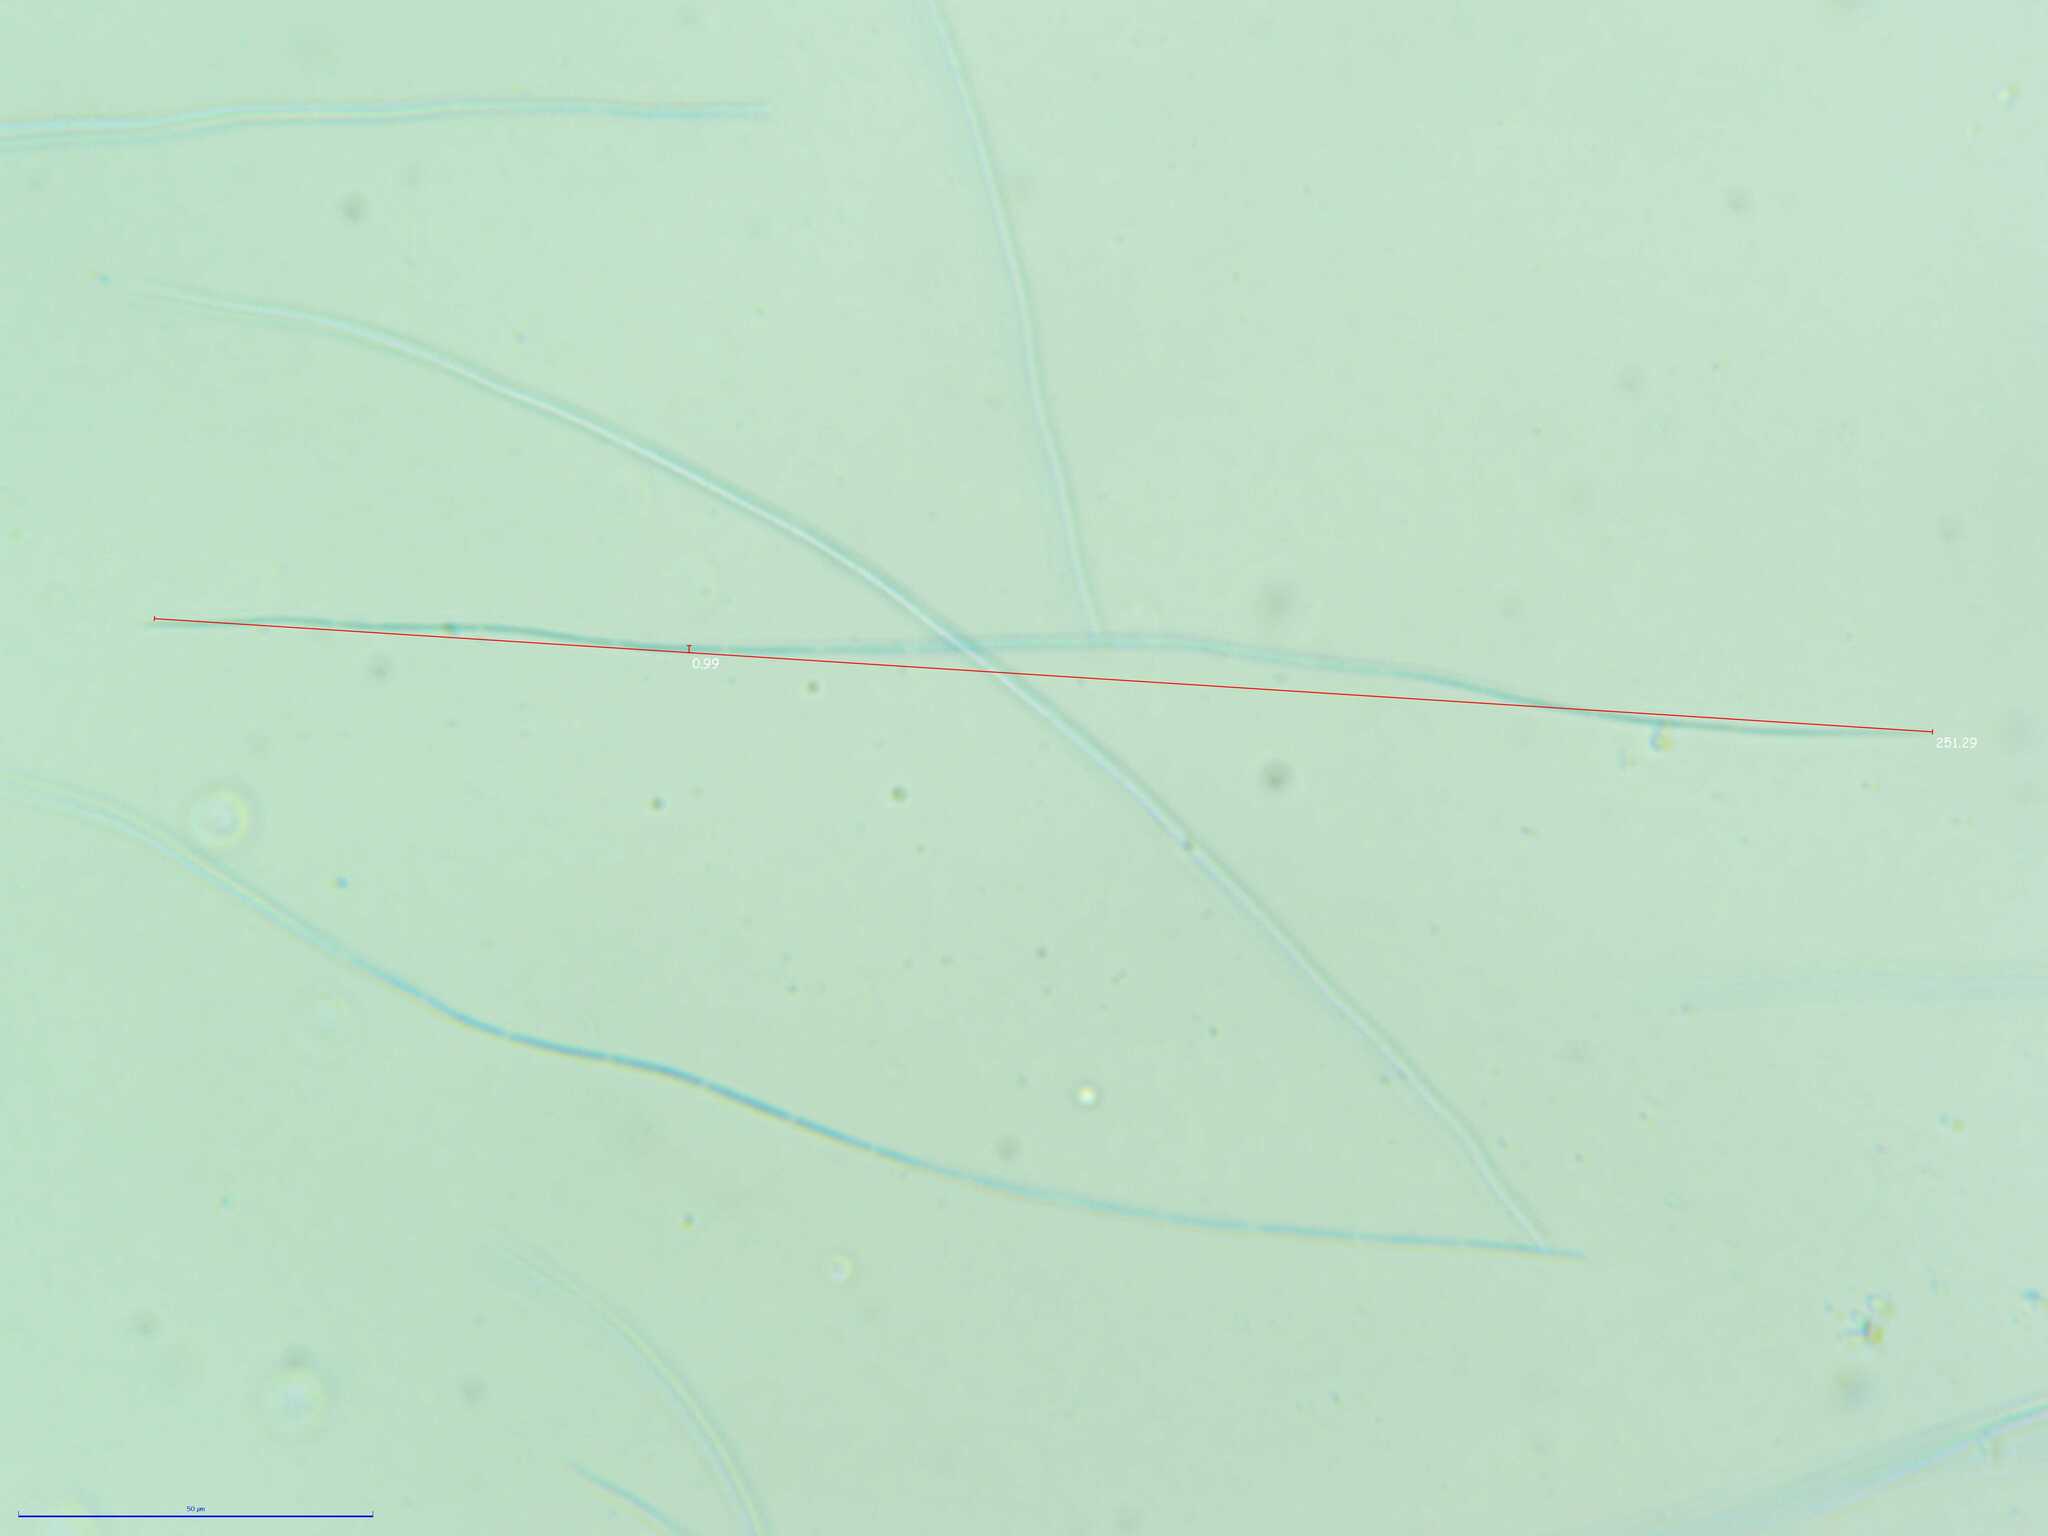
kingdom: Fungi
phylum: Ascomycota
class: Leotiomycetes
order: Helotiales
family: Vibrisseaceae
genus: Vibrissea
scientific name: Vibrissea truncorum
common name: Stream beacon
